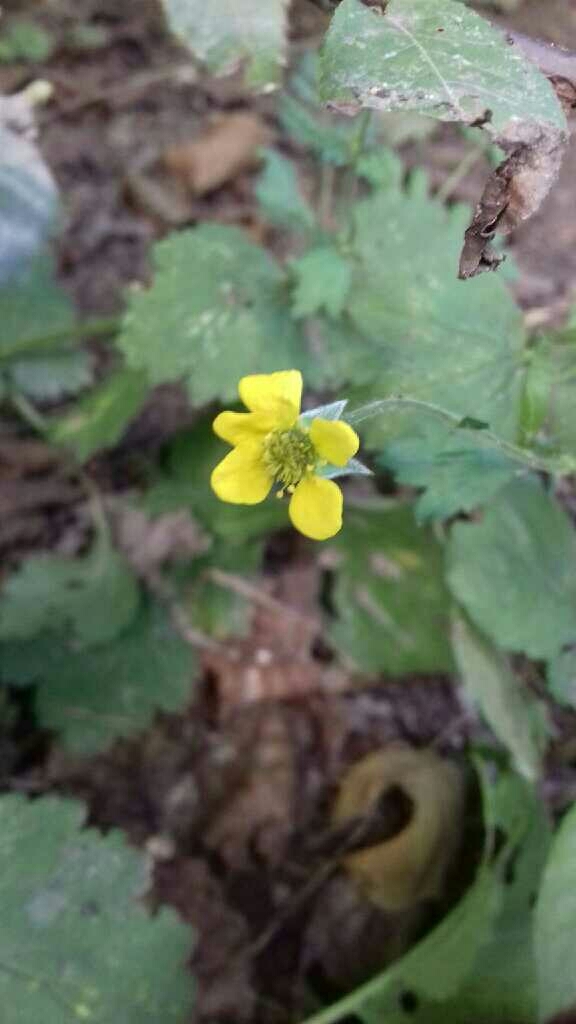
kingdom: Plantae
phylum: Tracheophyta
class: Magnoliopsida
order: Rosales
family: Rosaceae
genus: Geum
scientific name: Geum urbanum
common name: Wood avens
